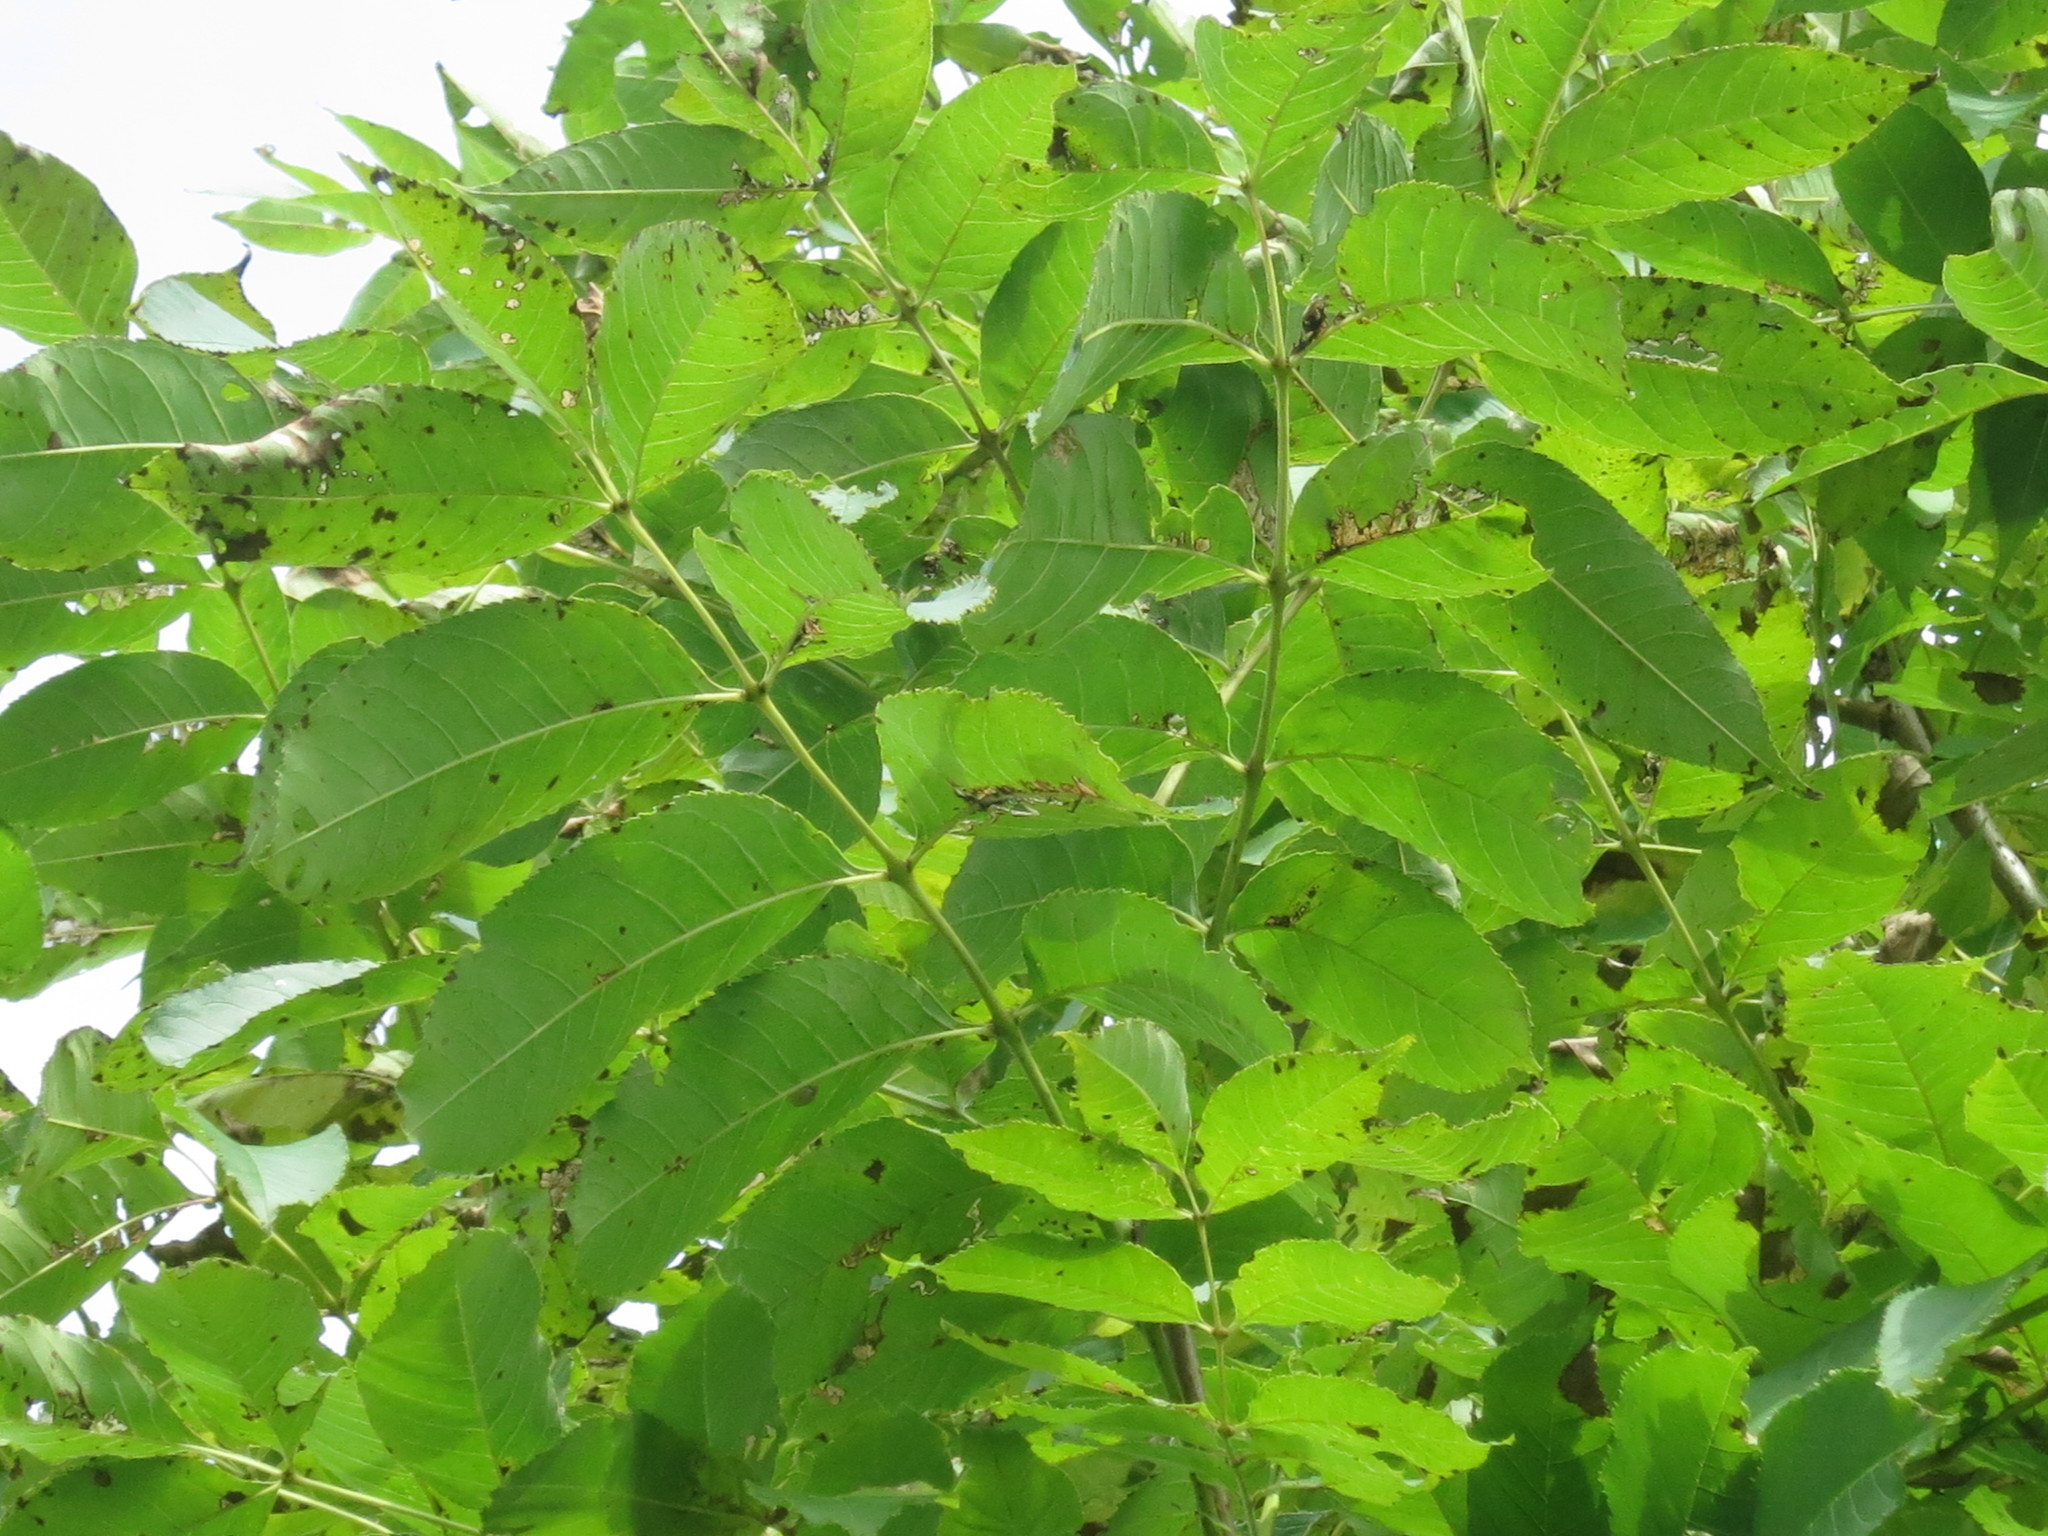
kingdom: Plantae
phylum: Tracheophyta
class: Magnoliopsida
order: Lamiales
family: Oleaceae
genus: Fraxinus
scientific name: Fraxinus mandshurica
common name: Manchurian ash
